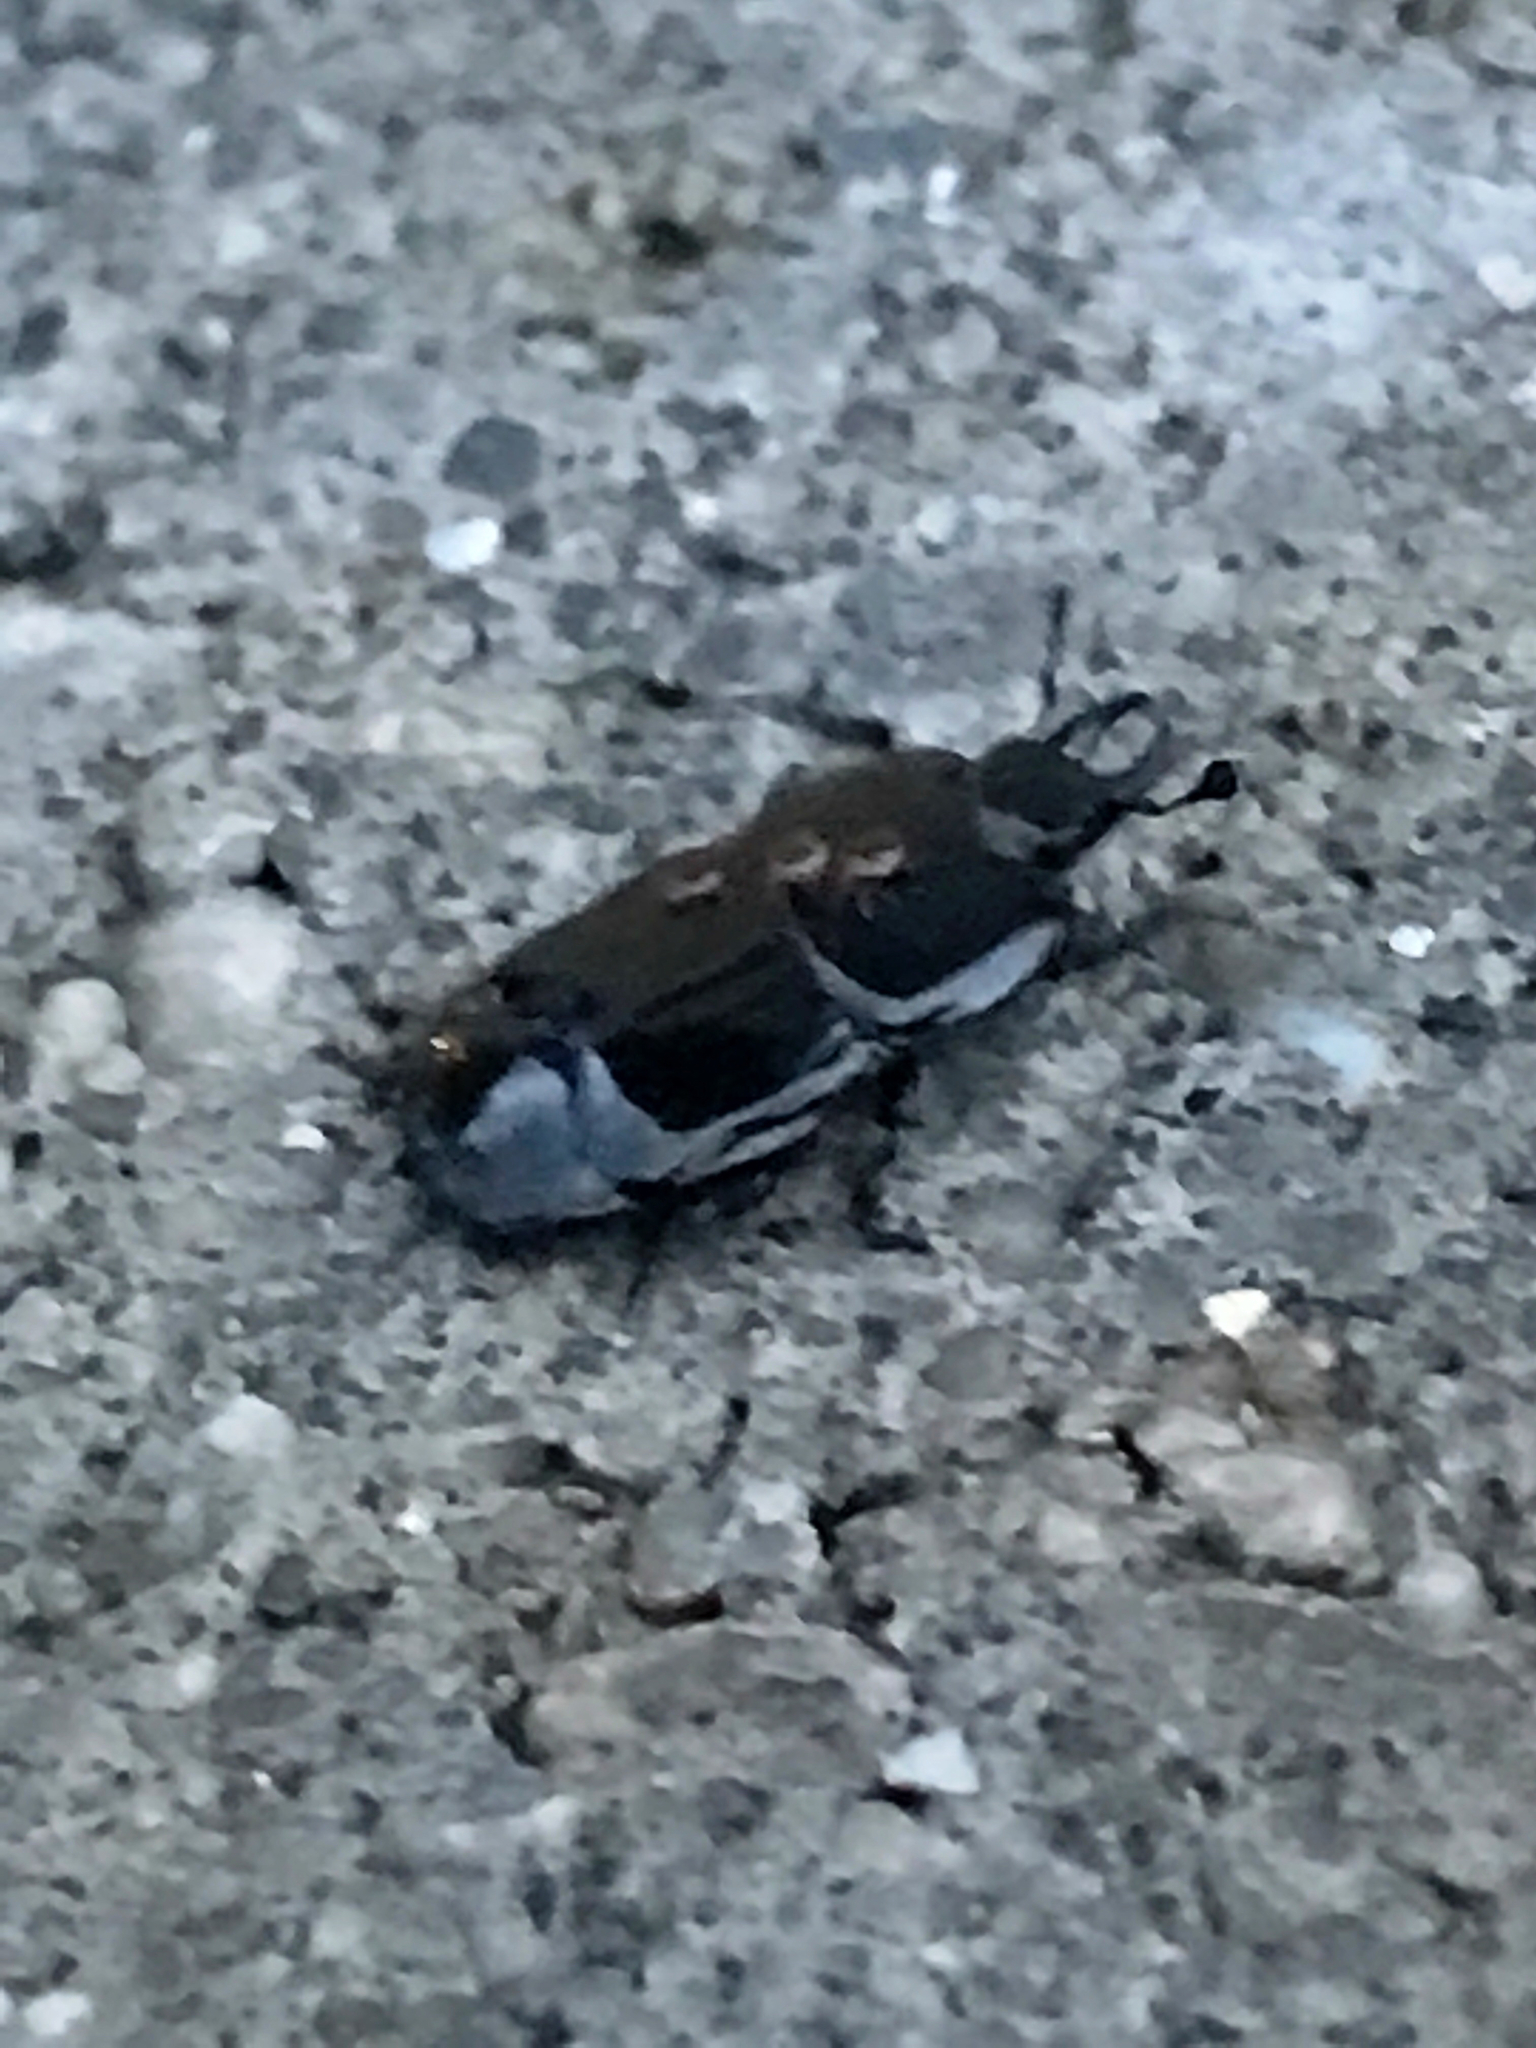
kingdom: Animalia
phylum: Arthropoda
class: Insecta
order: Coleoptera
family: Histeridae
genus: Hololepta
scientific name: Hololepta aequalis
